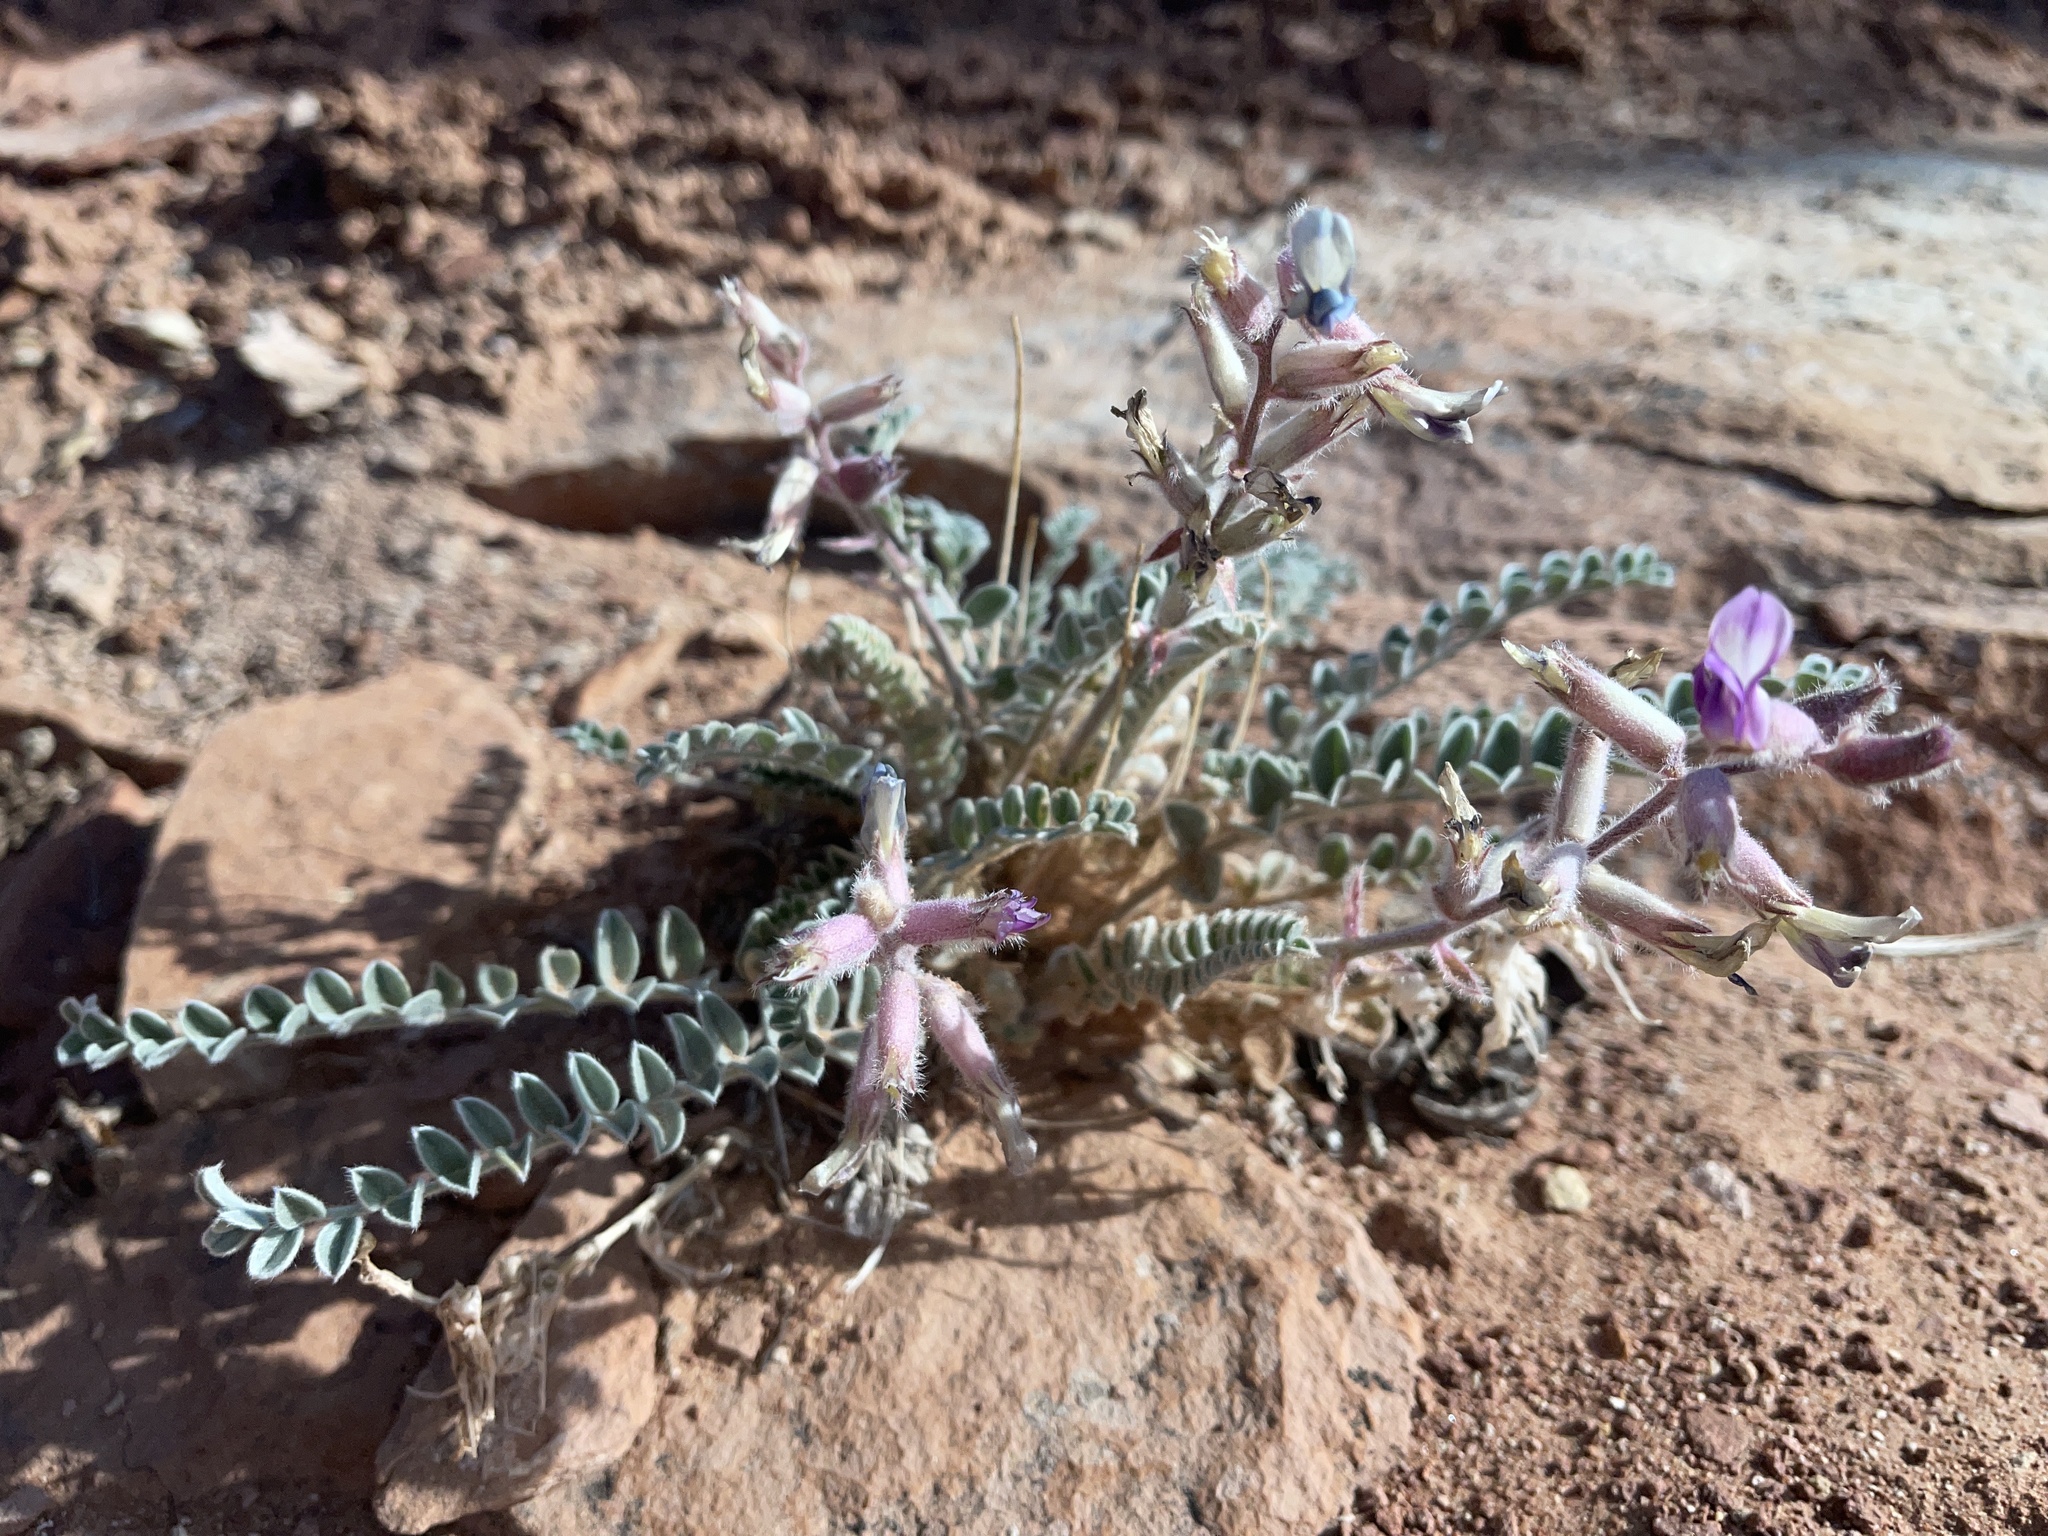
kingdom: Plantae
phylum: Tracheophyta
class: Magnoliopsida
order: Fabales
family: Fabaceae
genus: Astragalus
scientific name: Astragalus mollissimus
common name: Woolly locoweed
